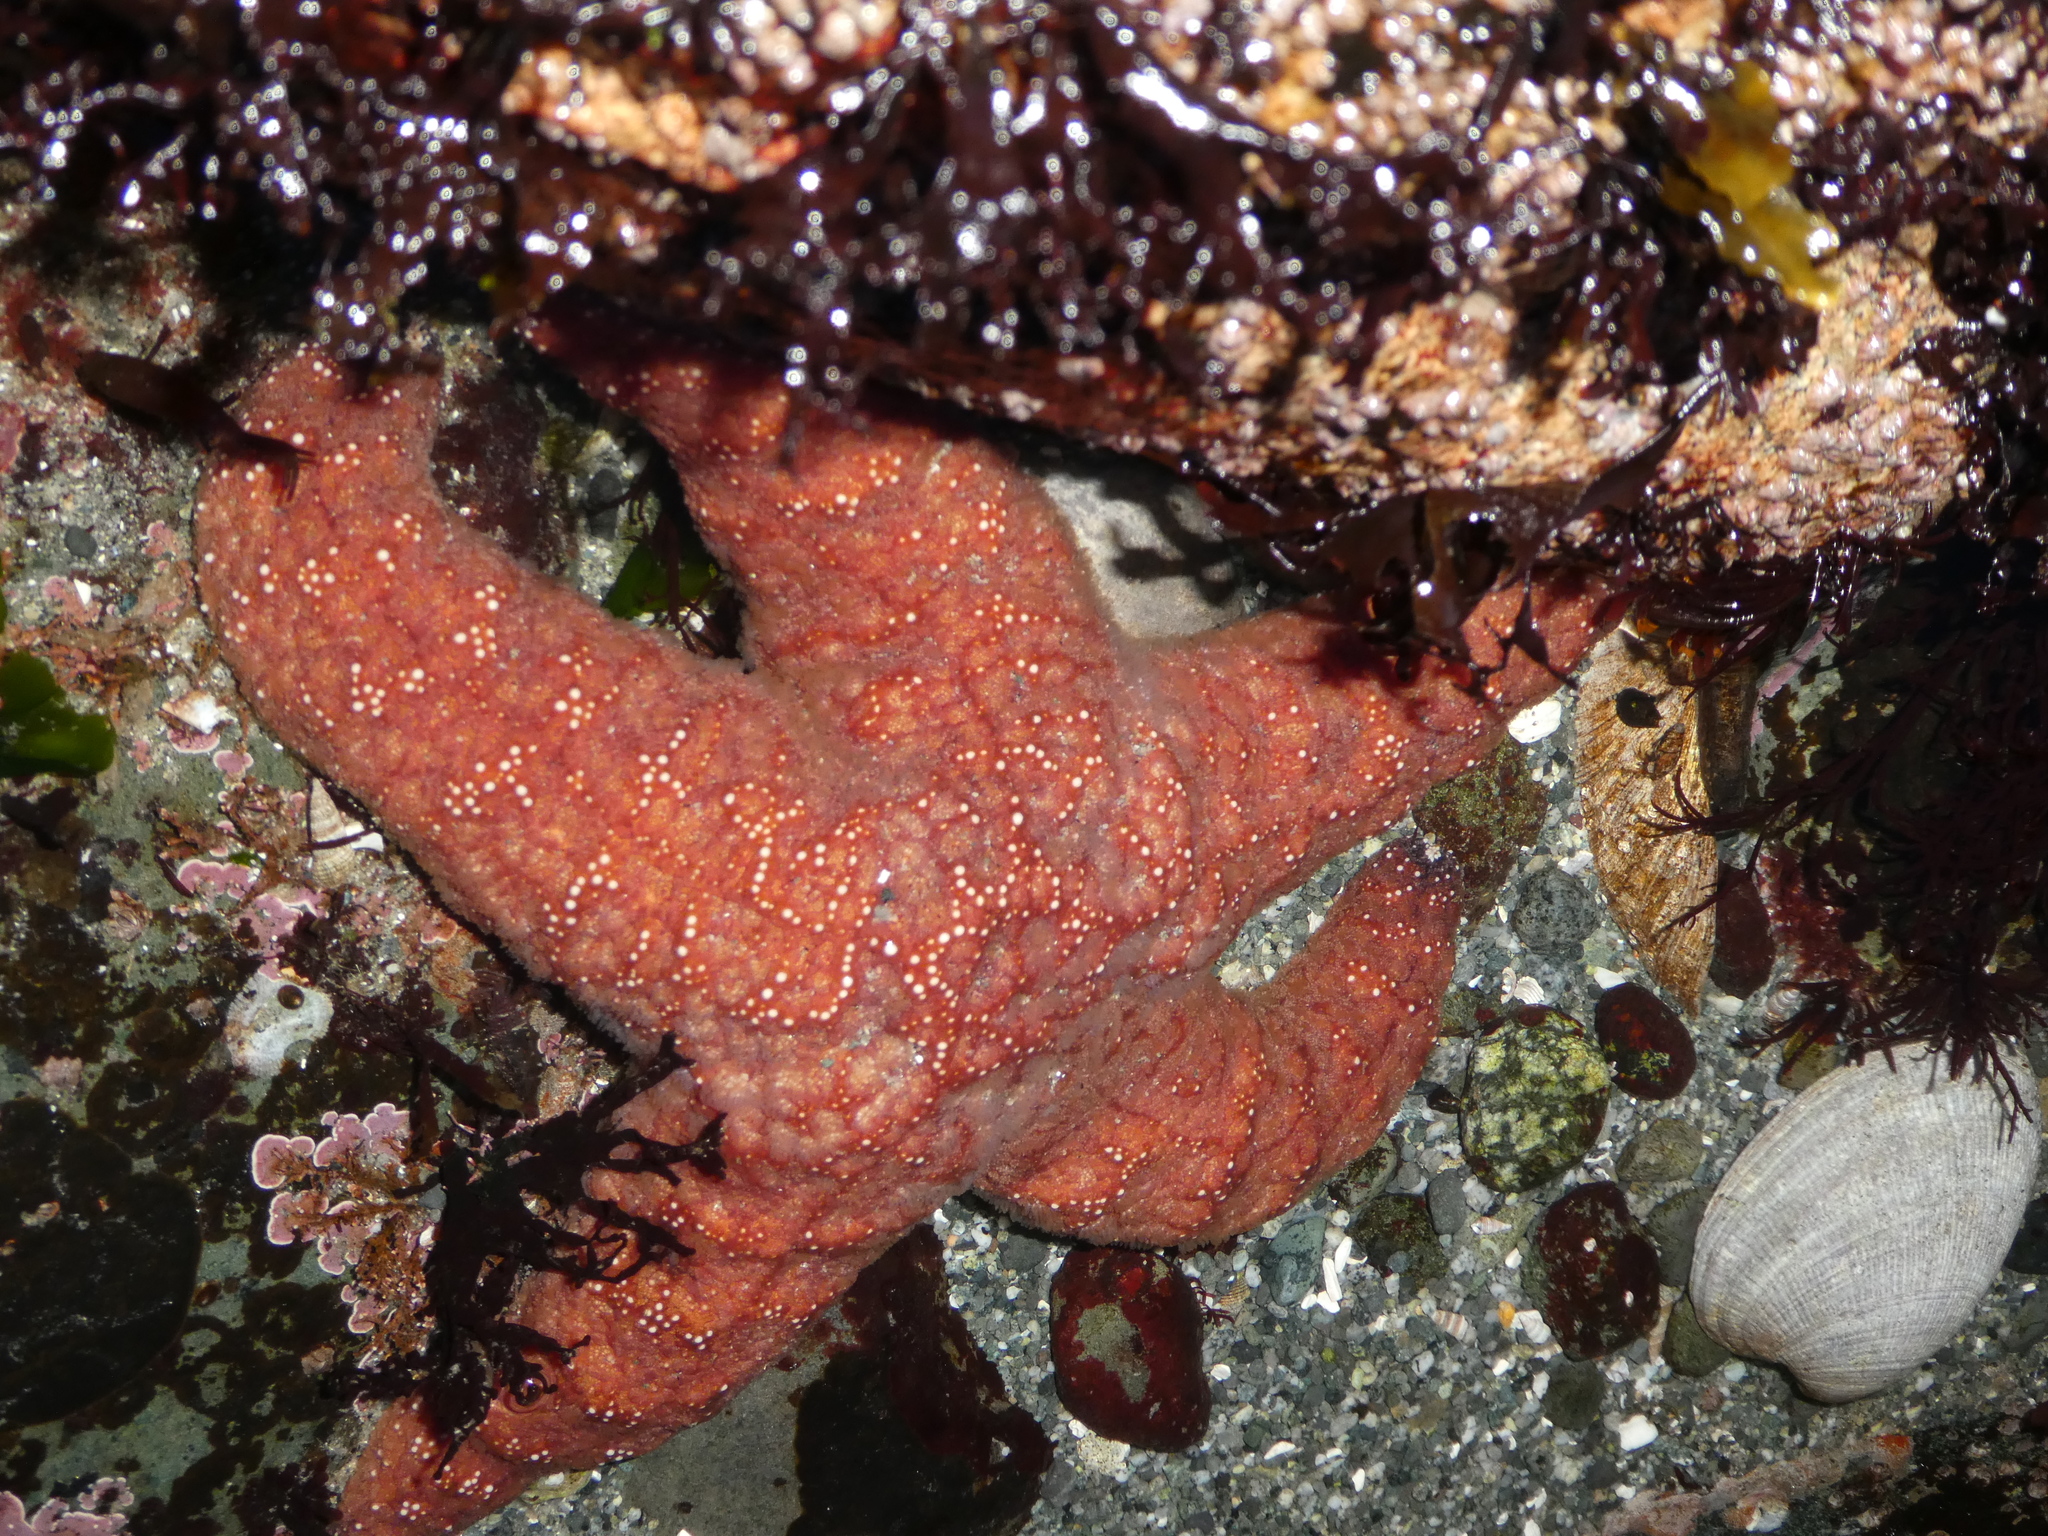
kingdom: Animalia
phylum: Echinodermata
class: Asteroidea
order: Forcipulatida
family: Asteriidae
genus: Pisaster
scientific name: Pisaster ochraceus
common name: Ochre stars
